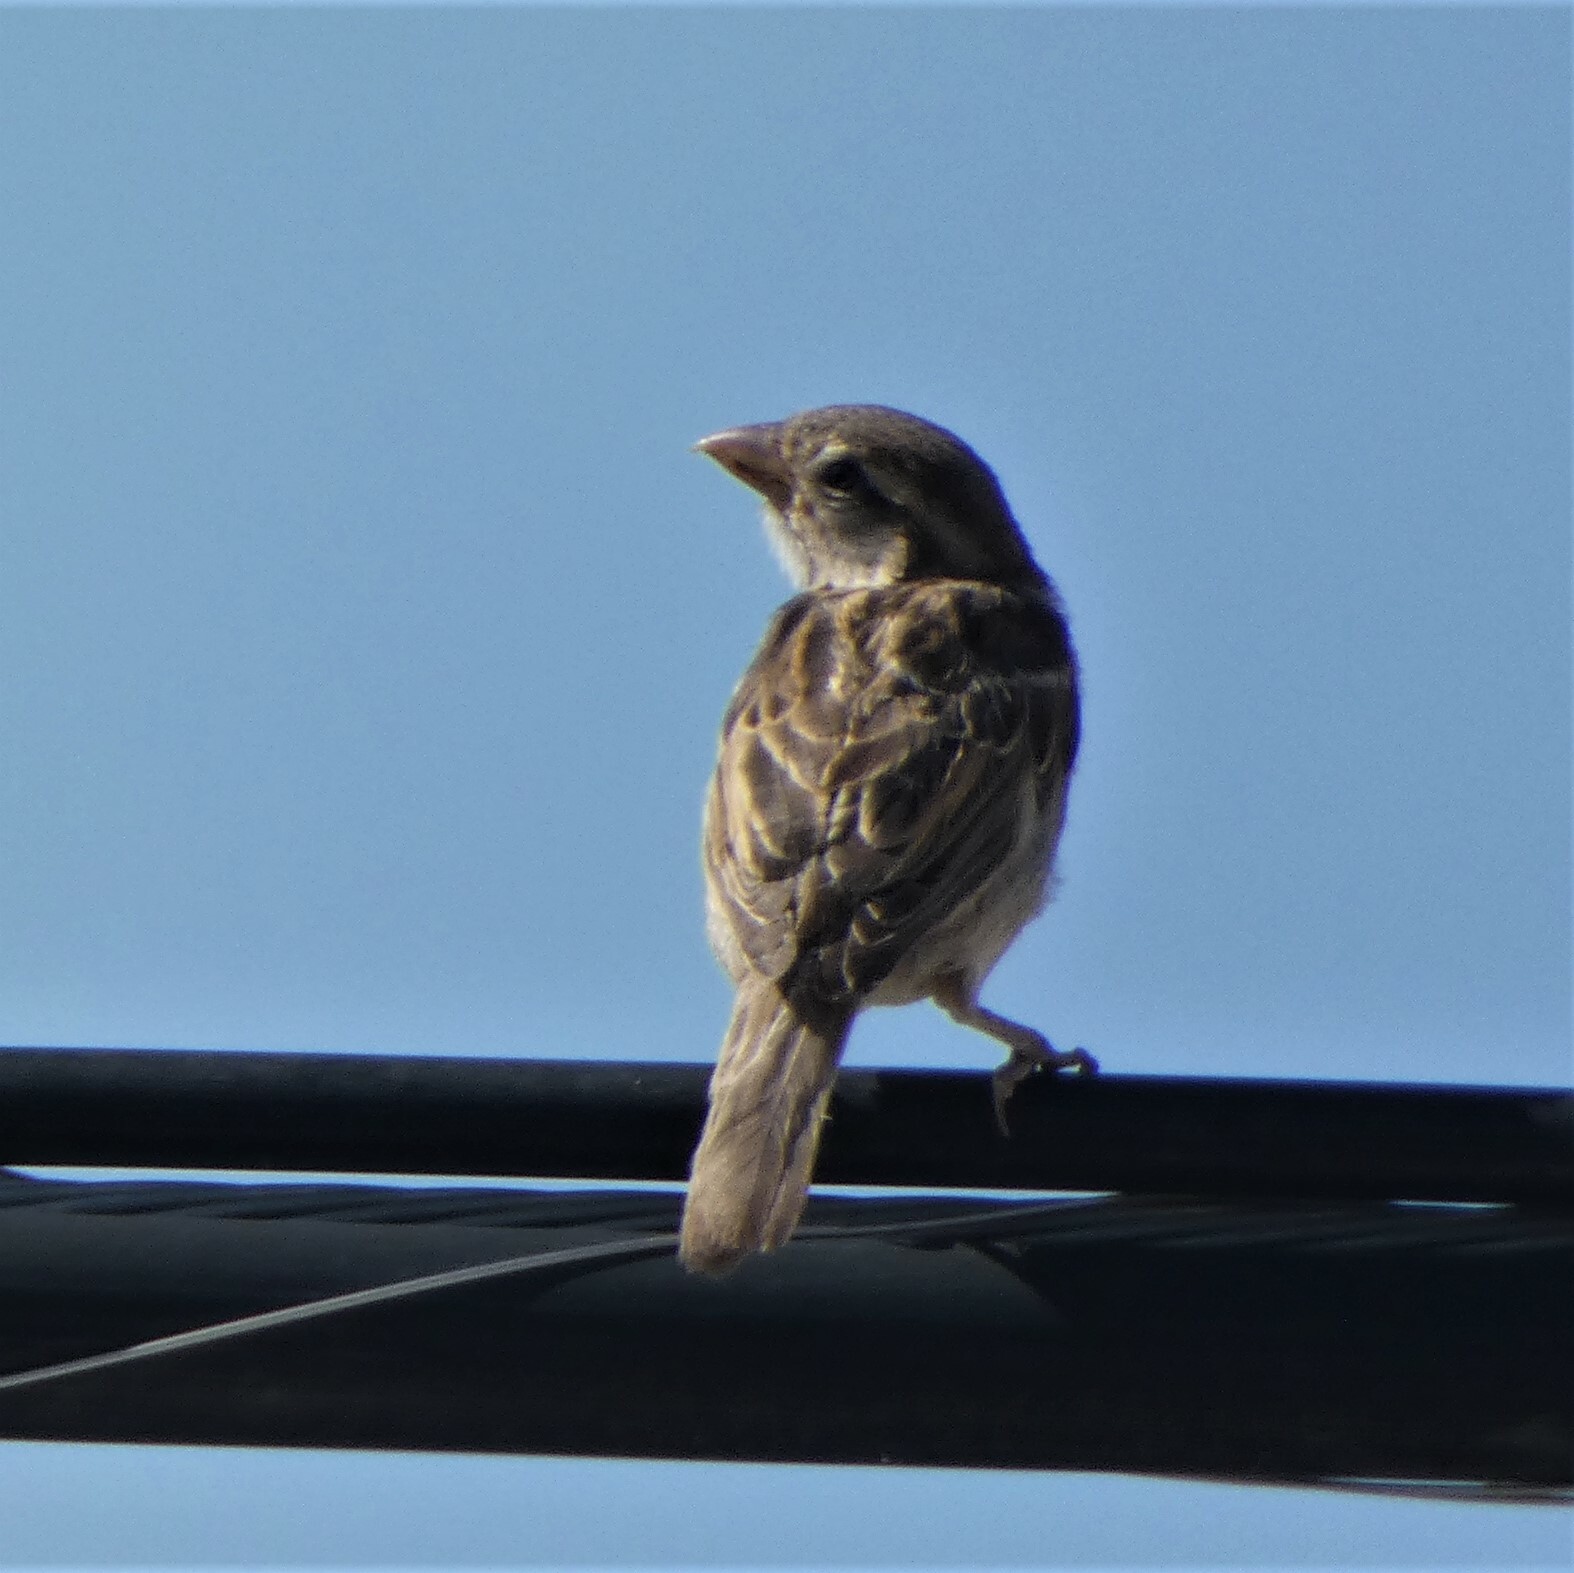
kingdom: Animalia
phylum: Chordata
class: Aves
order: Passeriformes
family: Passeridae
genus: Passer
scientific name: Passer domesticus
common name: House sparrow
